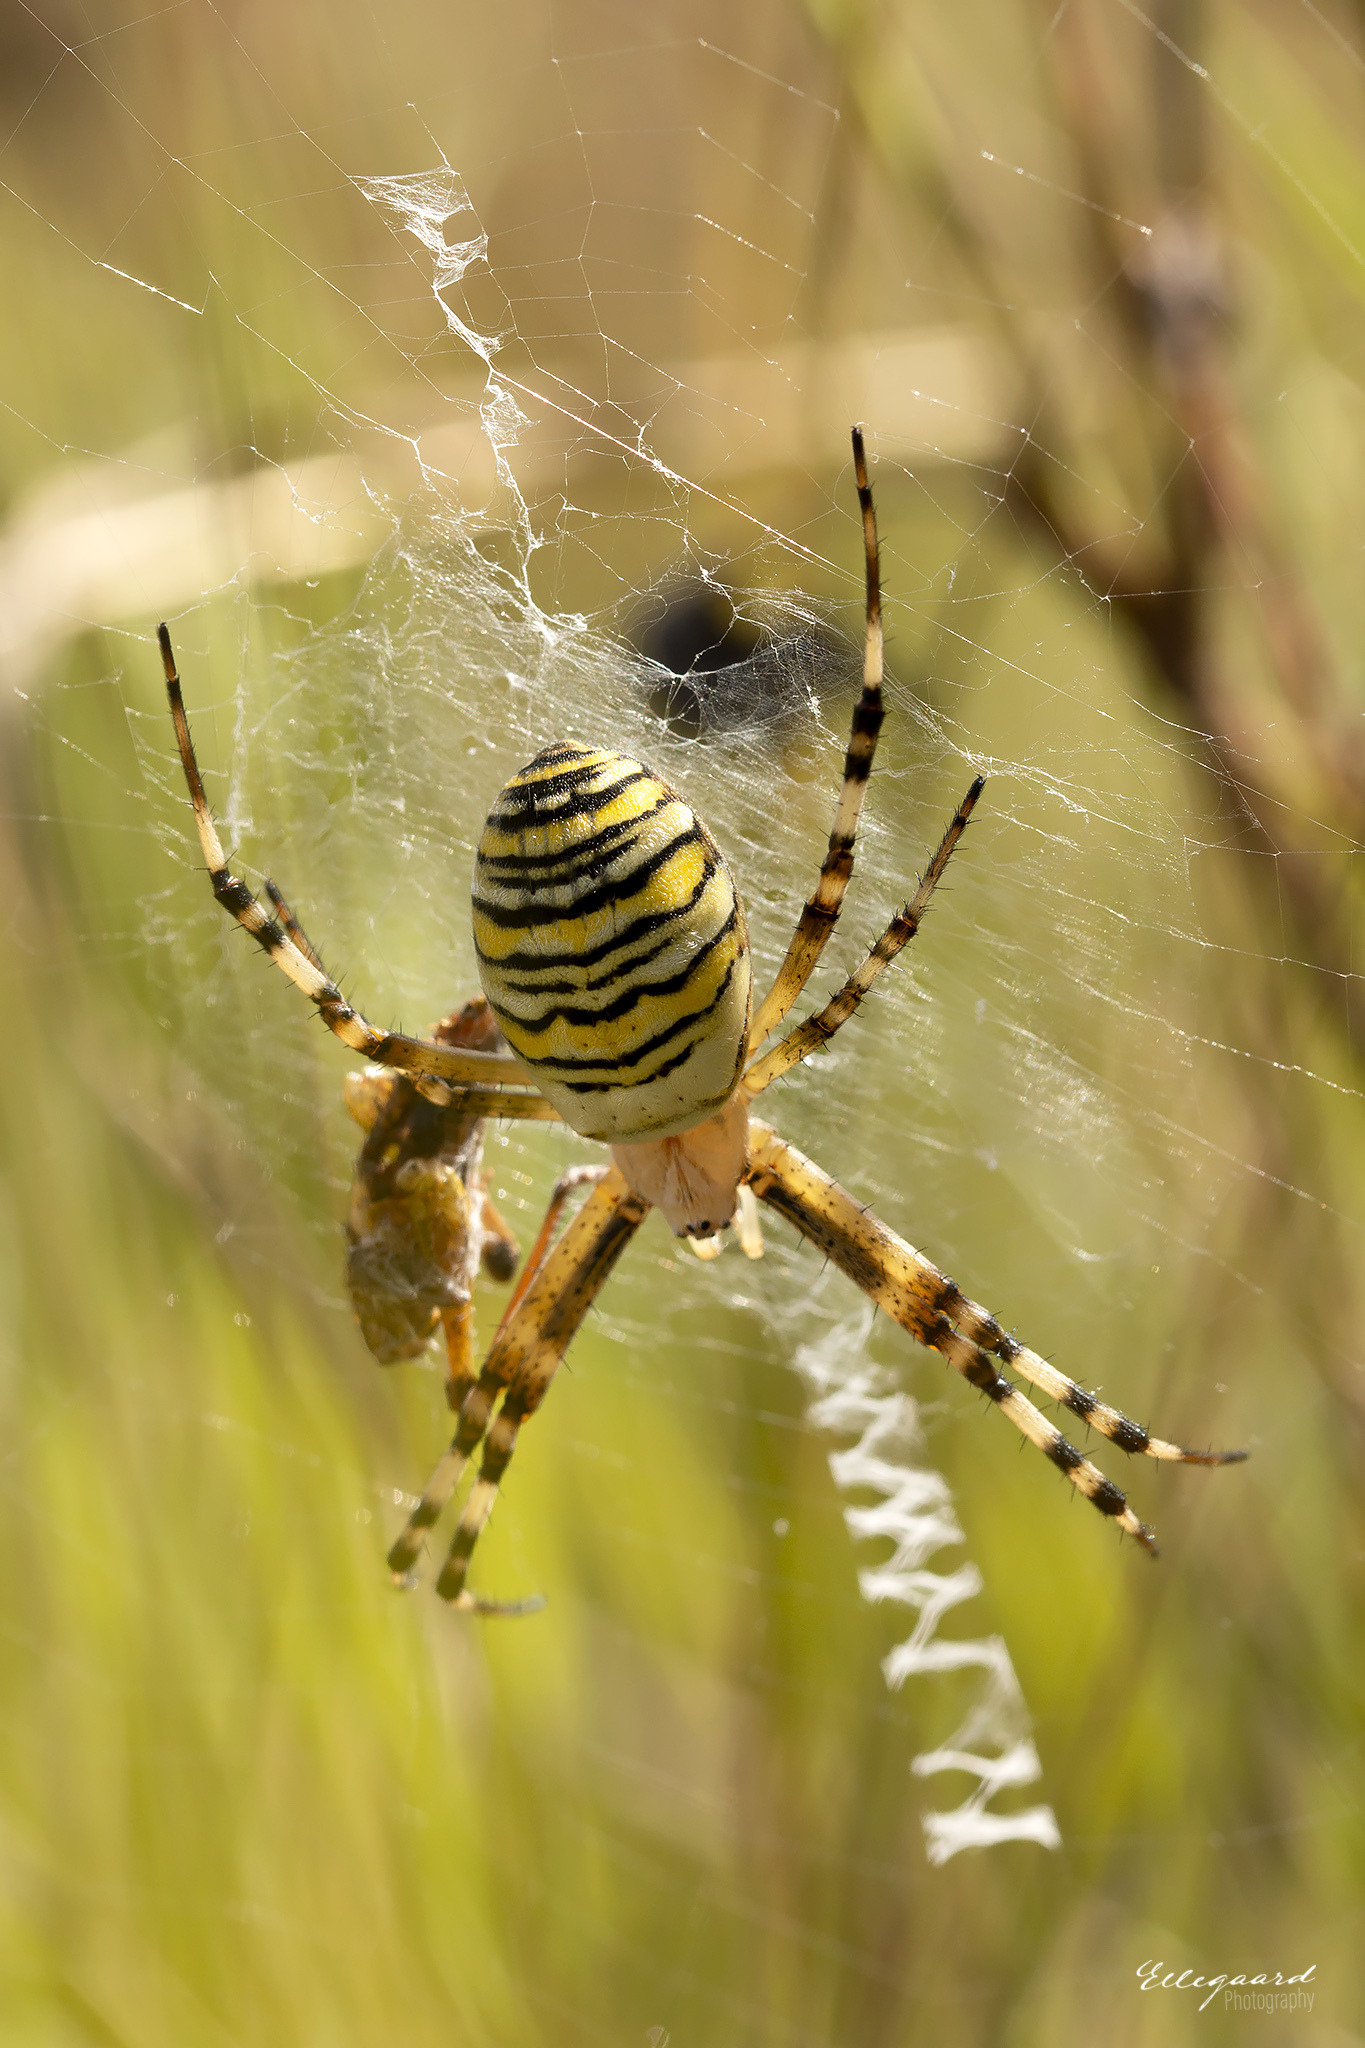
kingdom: Animalia
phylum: Arthropoda
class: Arachnida
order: Araneae
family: Araneidae
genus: Argiope
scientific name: Argiope bruennichi
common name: Wasp spider
